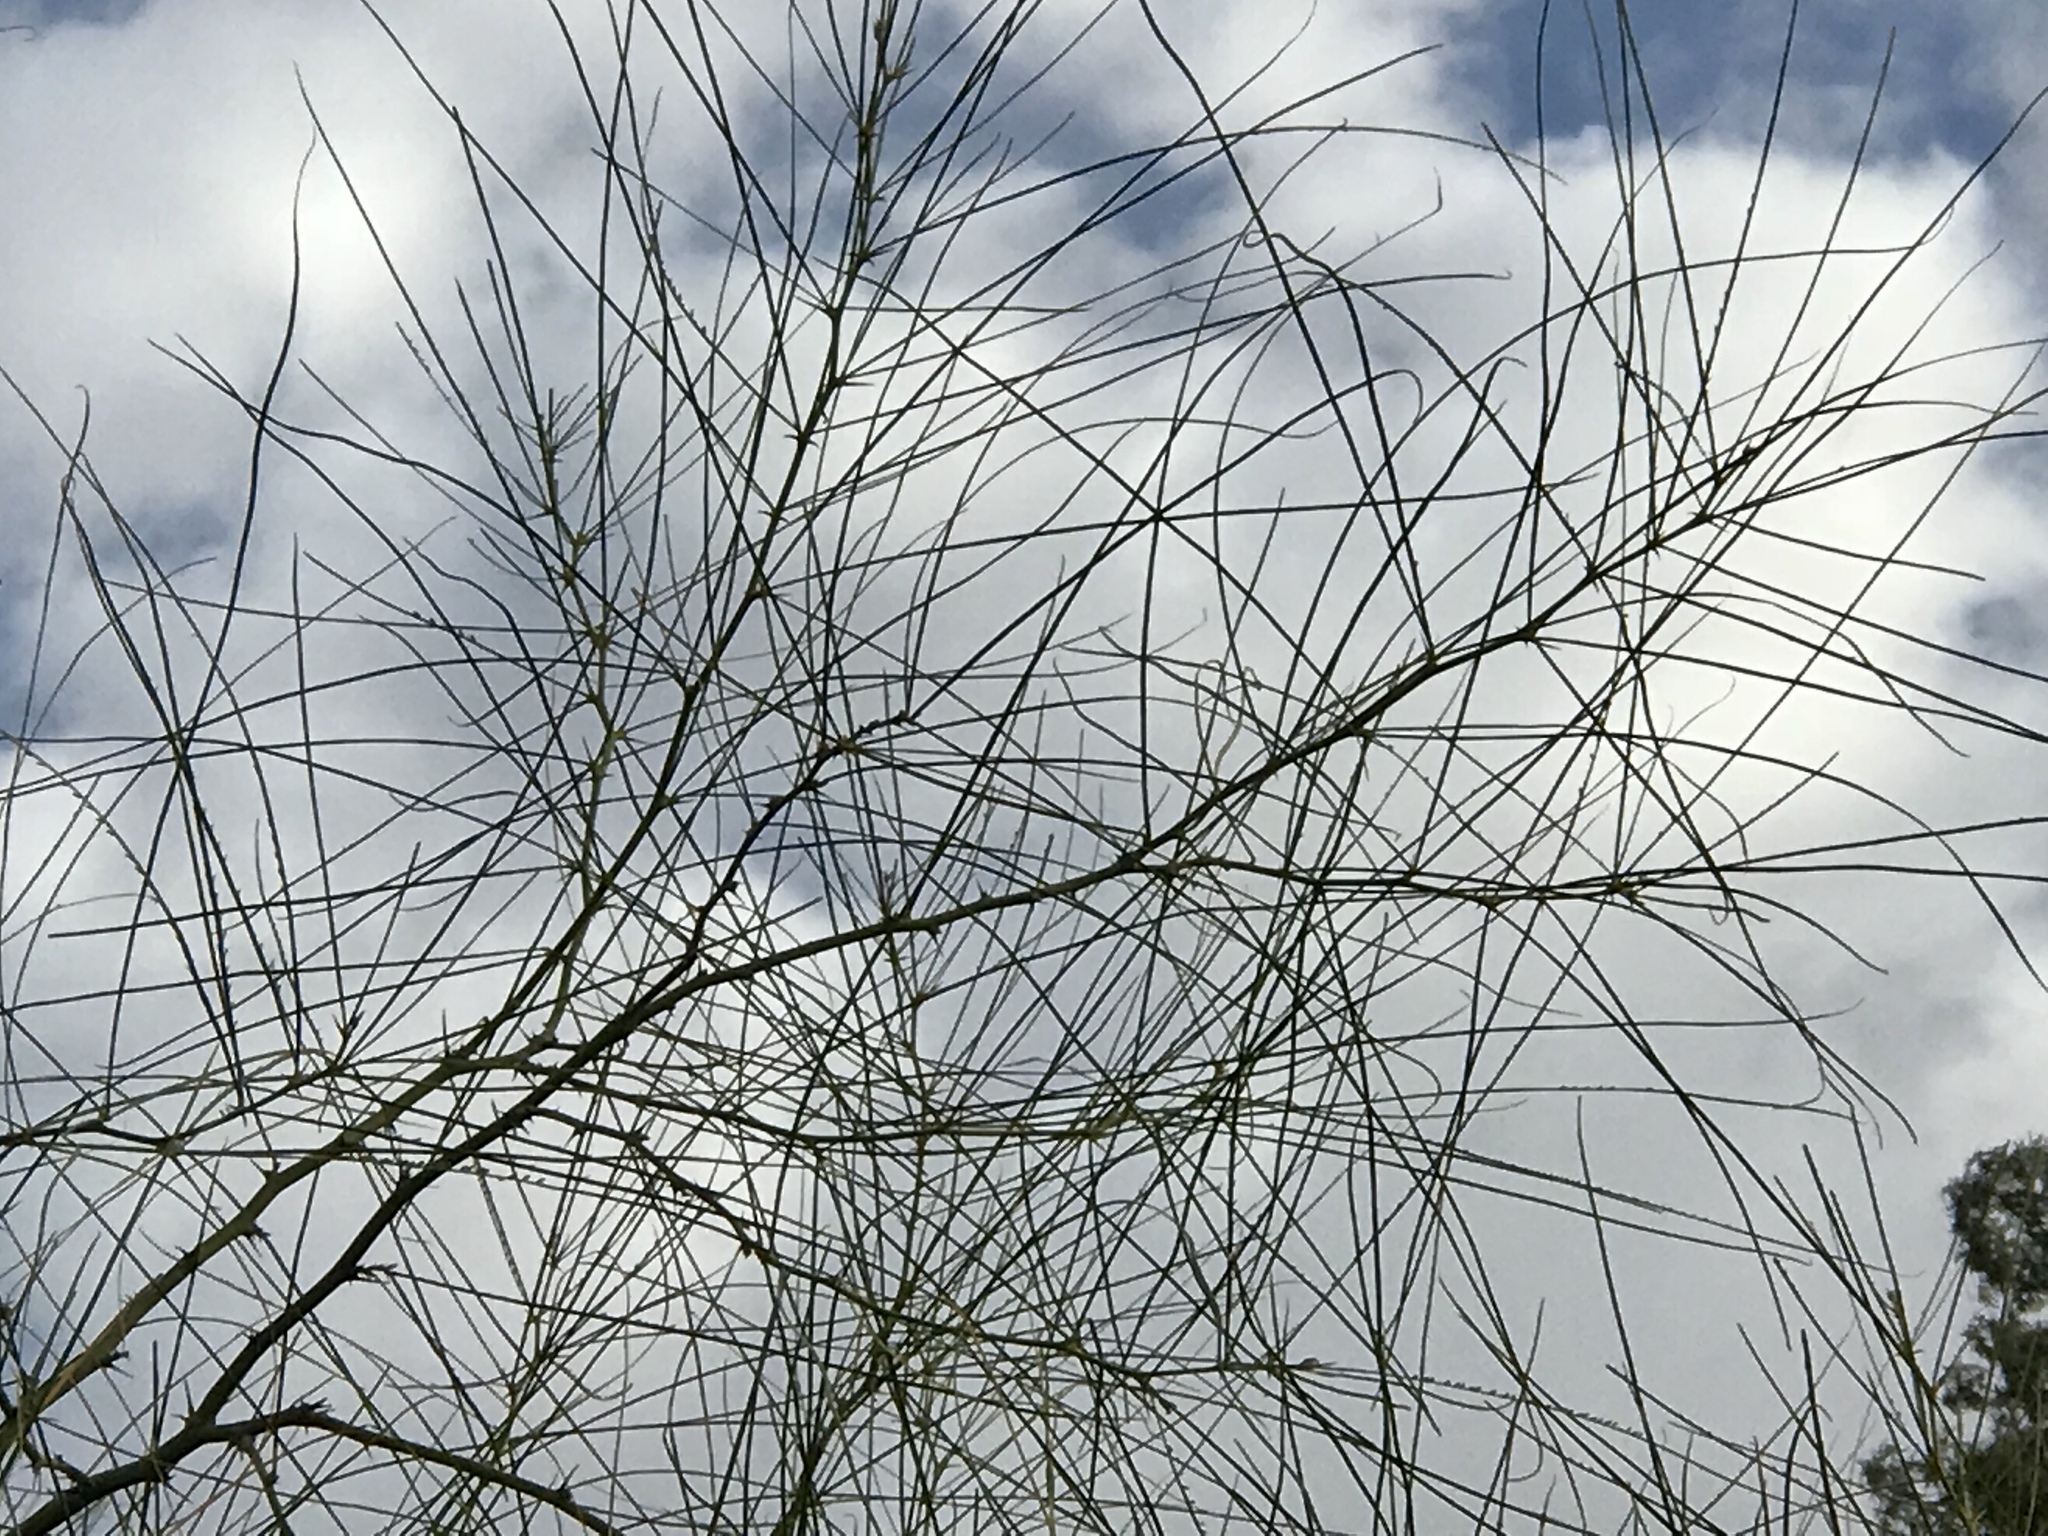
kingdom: Plantae
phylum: Tracheophyta
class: Magnoliopsida
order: Fabales
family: Fabaceae
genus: Parkinsonia
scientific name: Parkinsonia aculeata
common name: Jerusalem thorn
